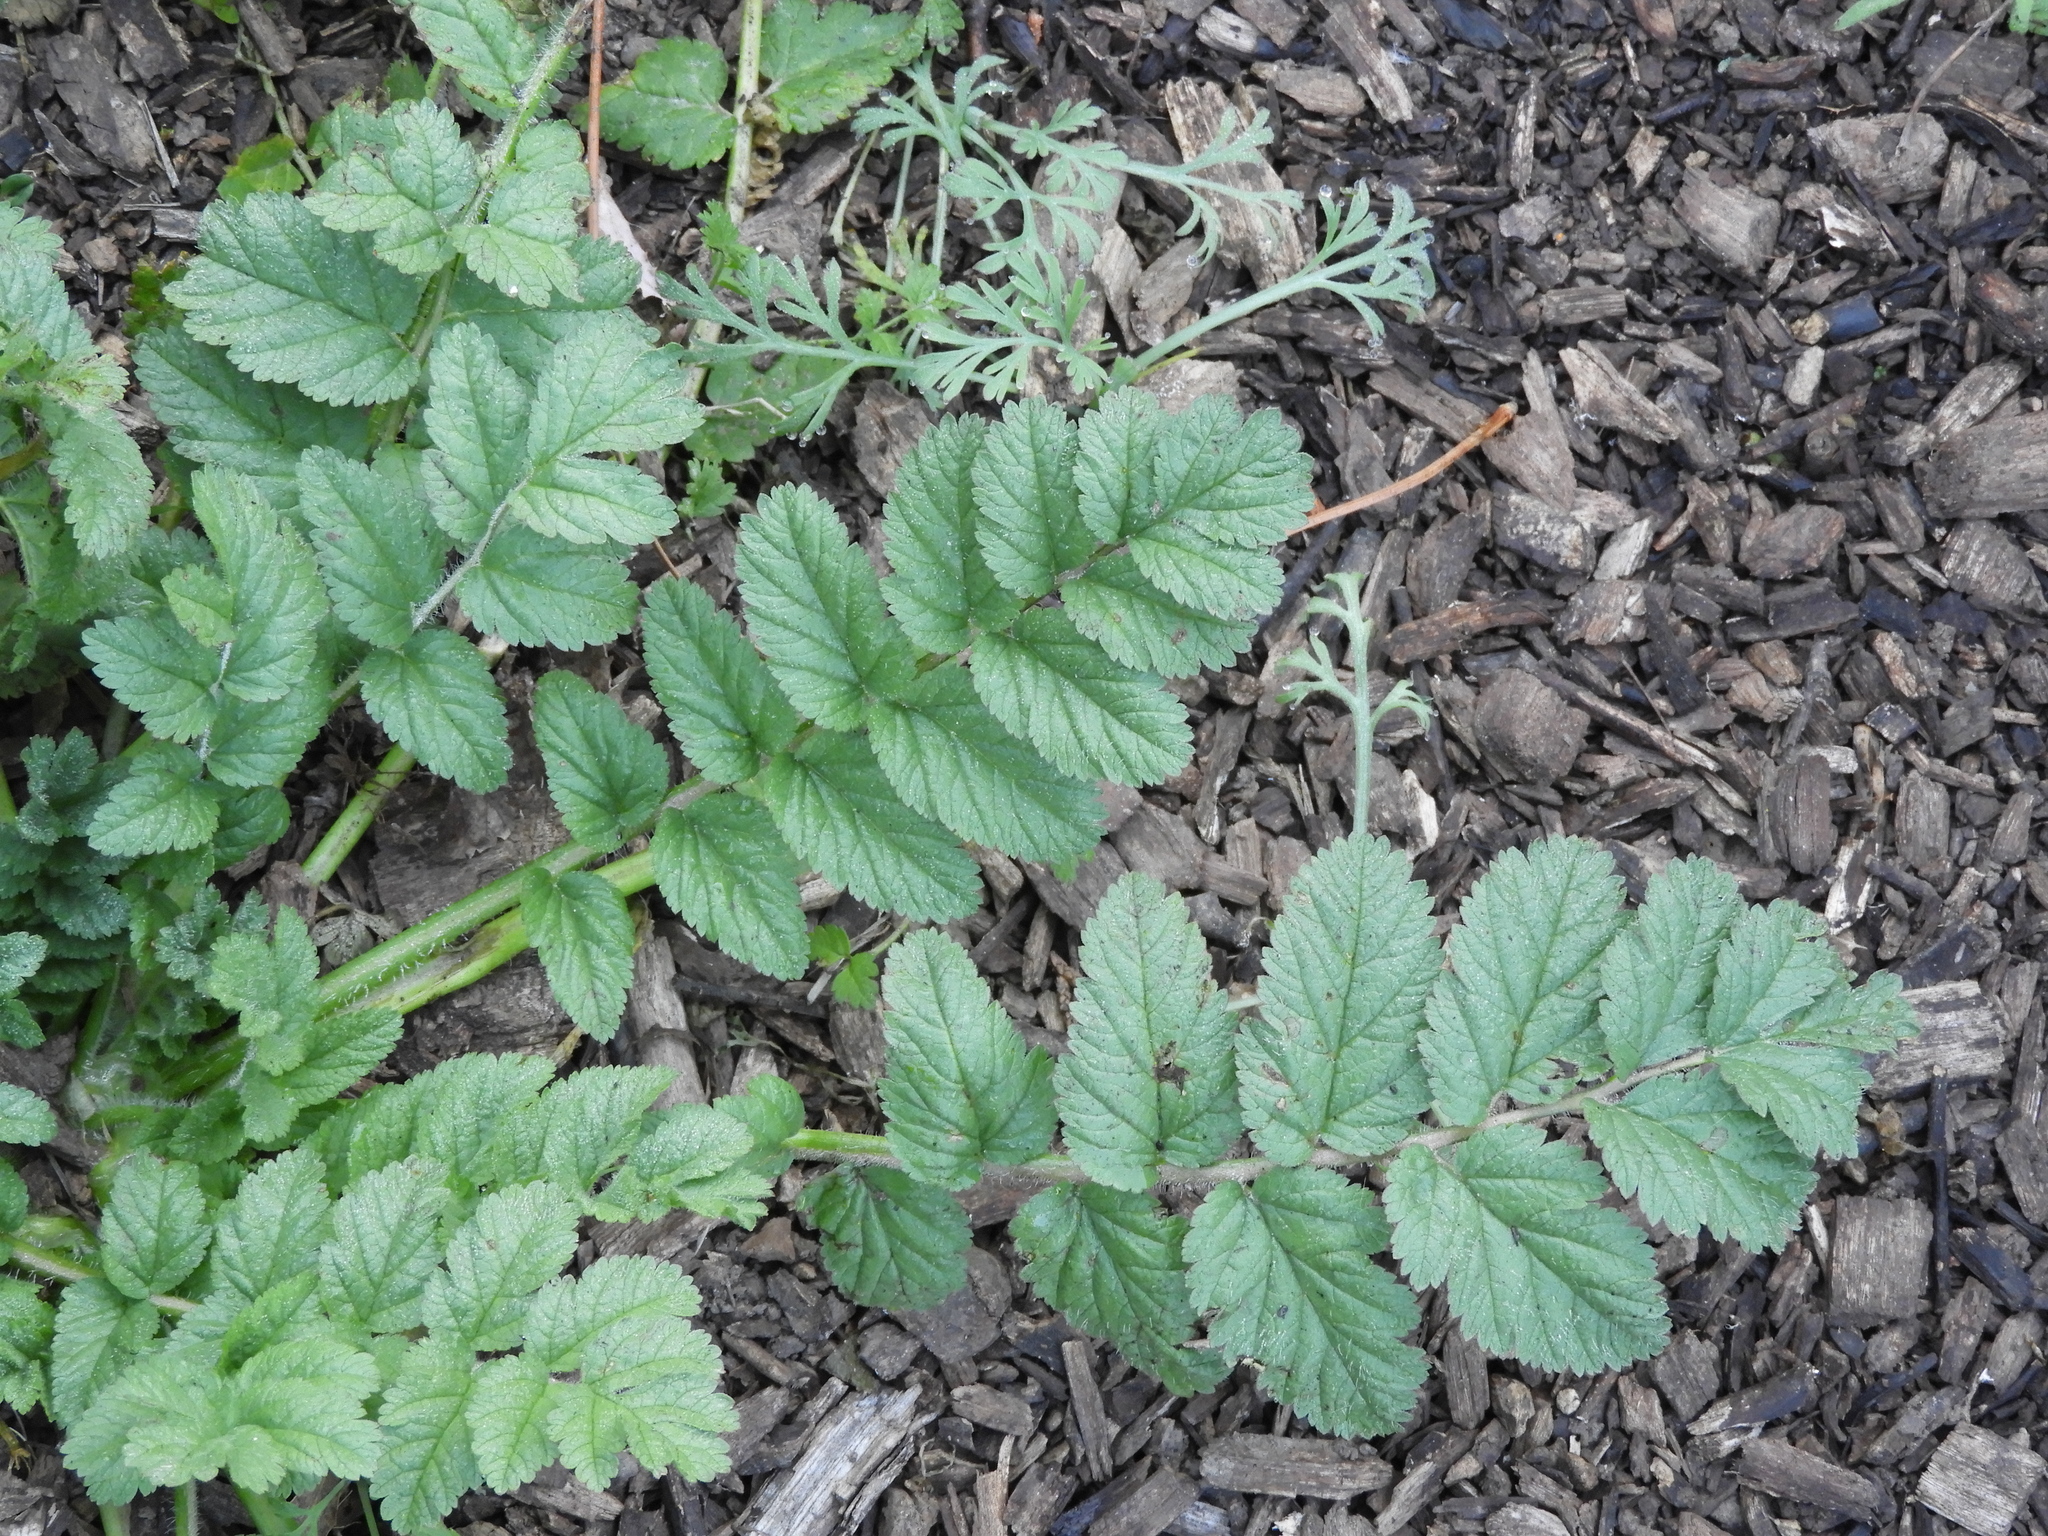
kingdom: Plantae
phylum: Tracheophyta
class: Magnoliopsida
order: Geraniales
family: Geraniaceae
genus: Erodium
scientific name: Erodium moschatum
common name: Musk stork's-bill
